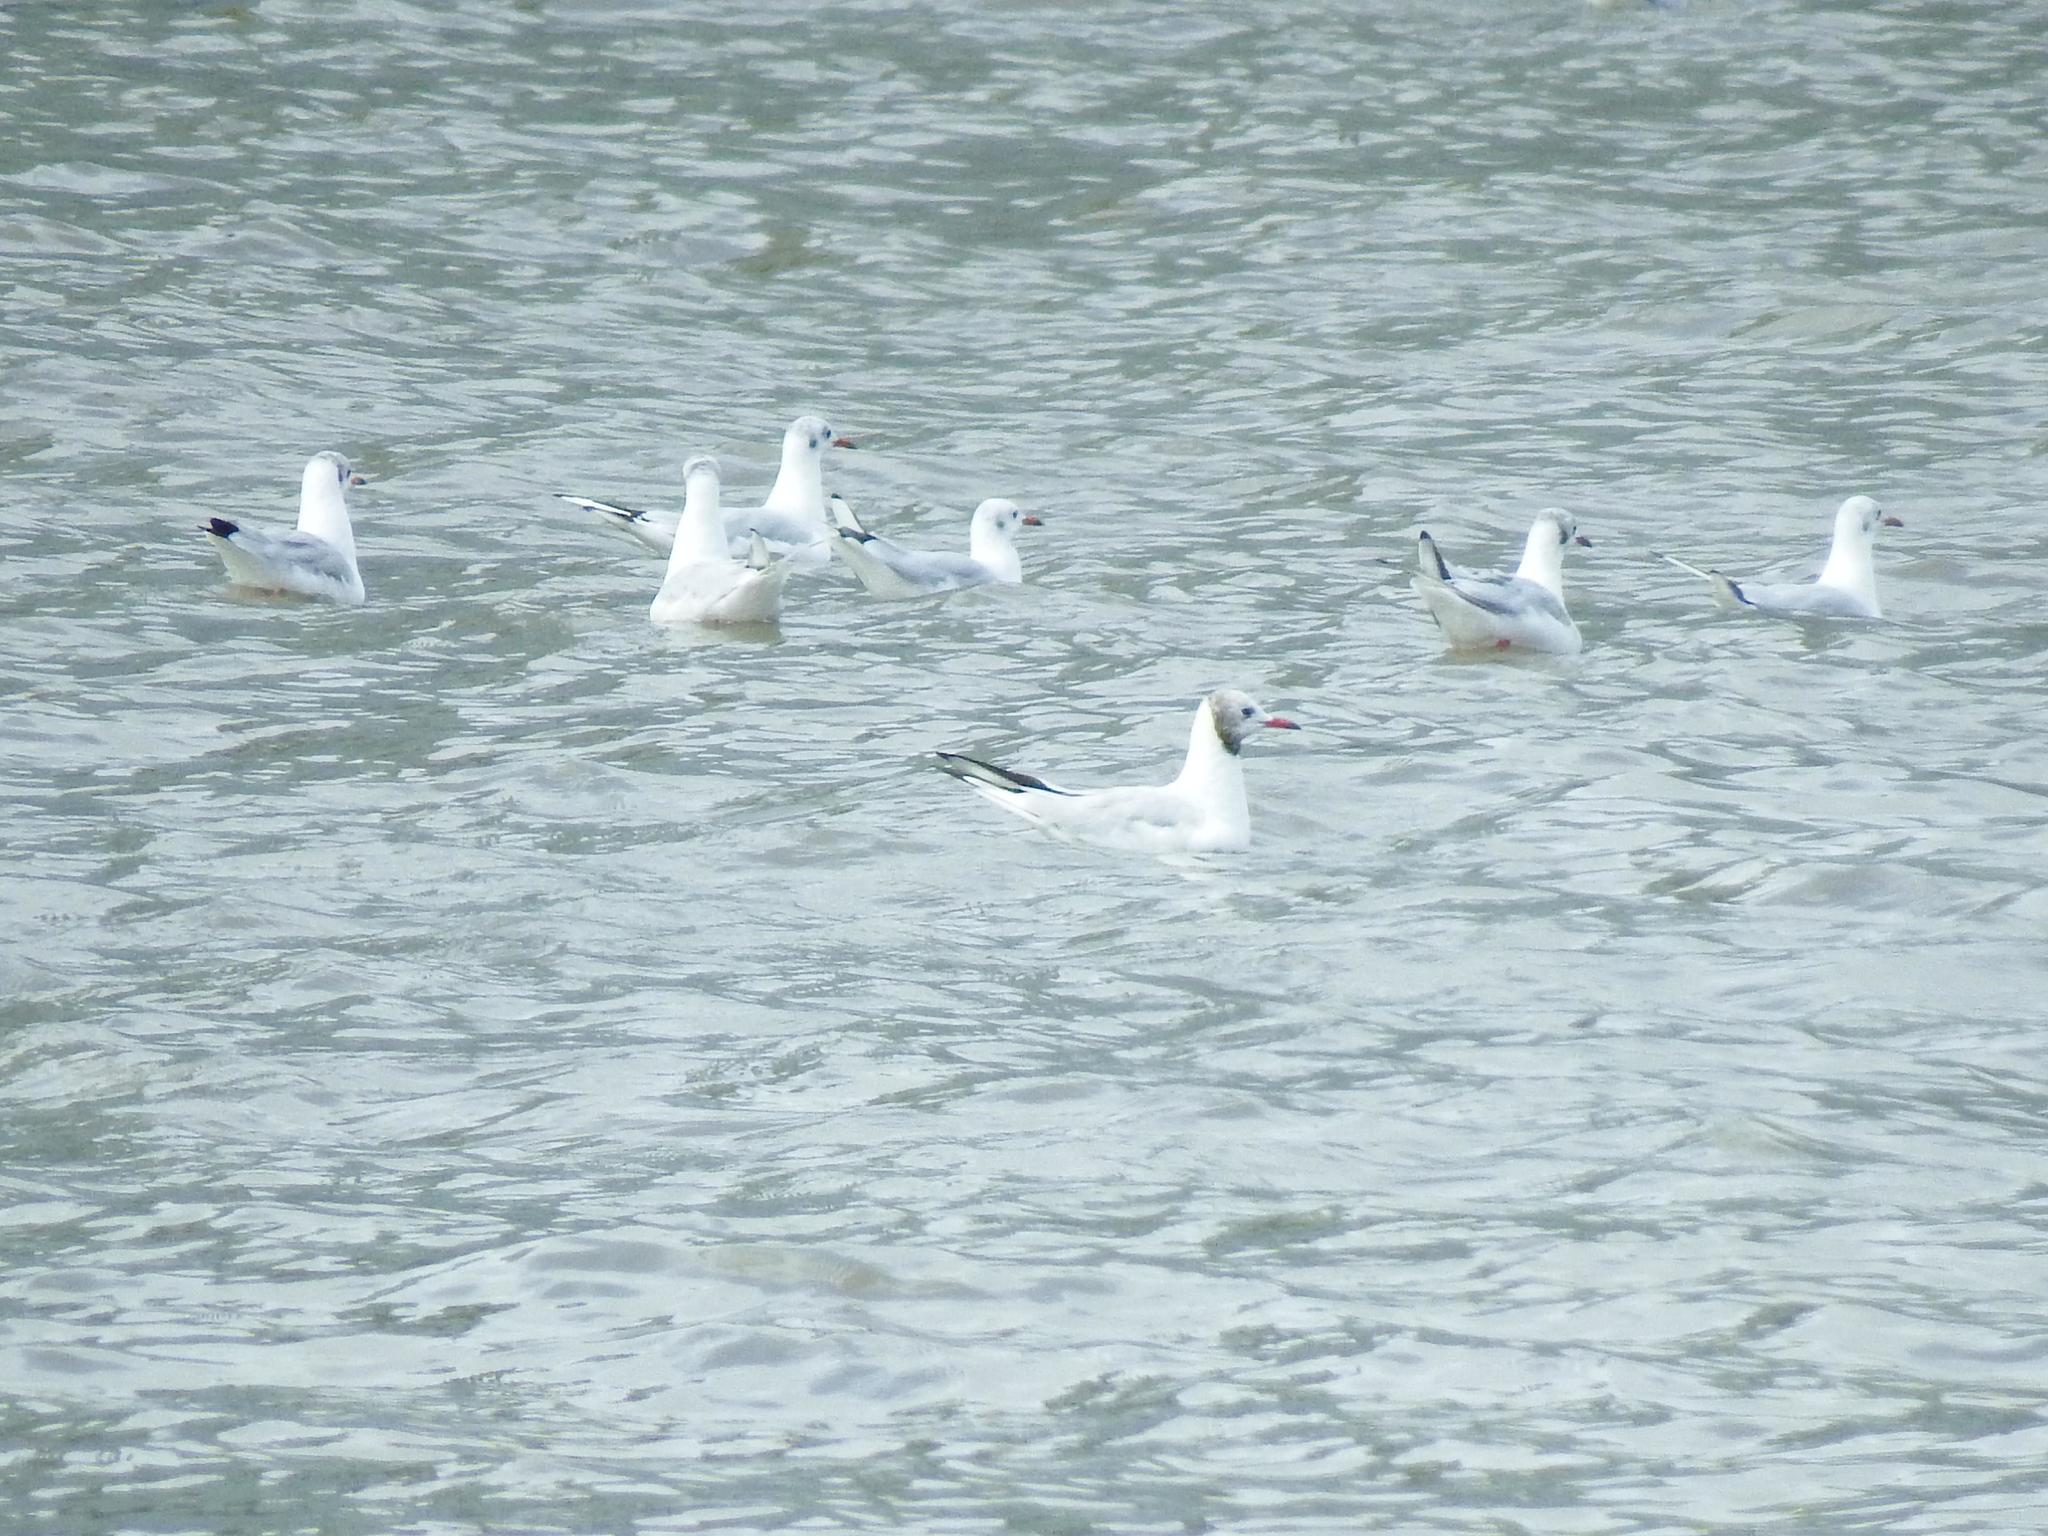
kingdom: Animalia
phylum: Chordata
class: Aves
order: Charadriiformes
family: Laridae
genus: Chroicocephalus
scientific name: Chroicocephalus ridibundus
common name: Black-headed gull
